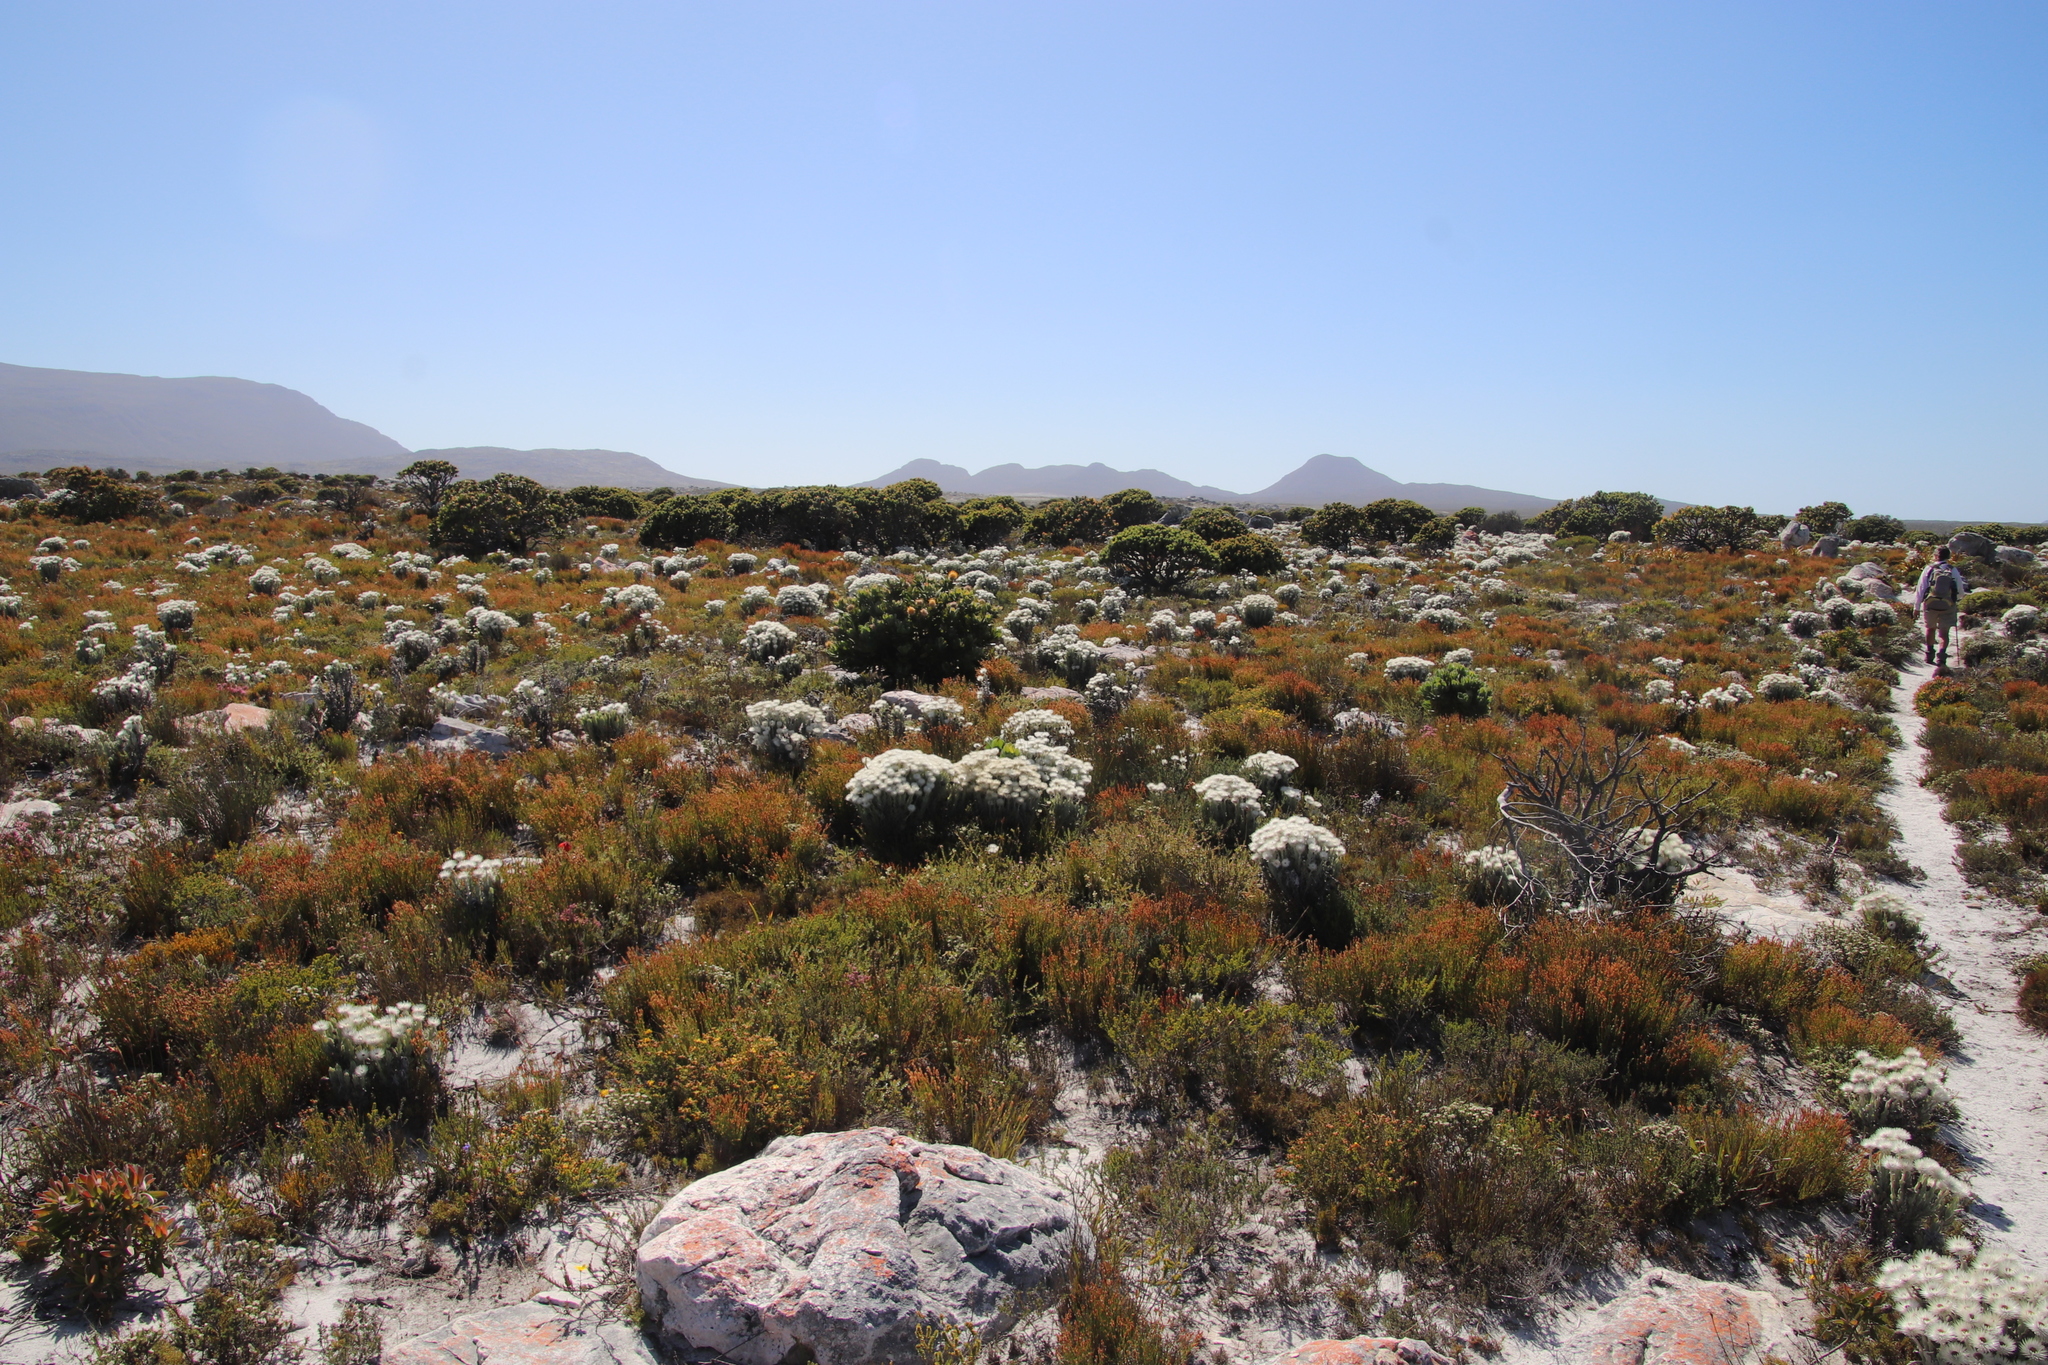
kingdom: Plantae
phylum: Tracheophyta
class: Magnoliopsida
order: Asterales
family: Asteraceae
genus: Syncarpha
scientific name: Syncarpha vestita
